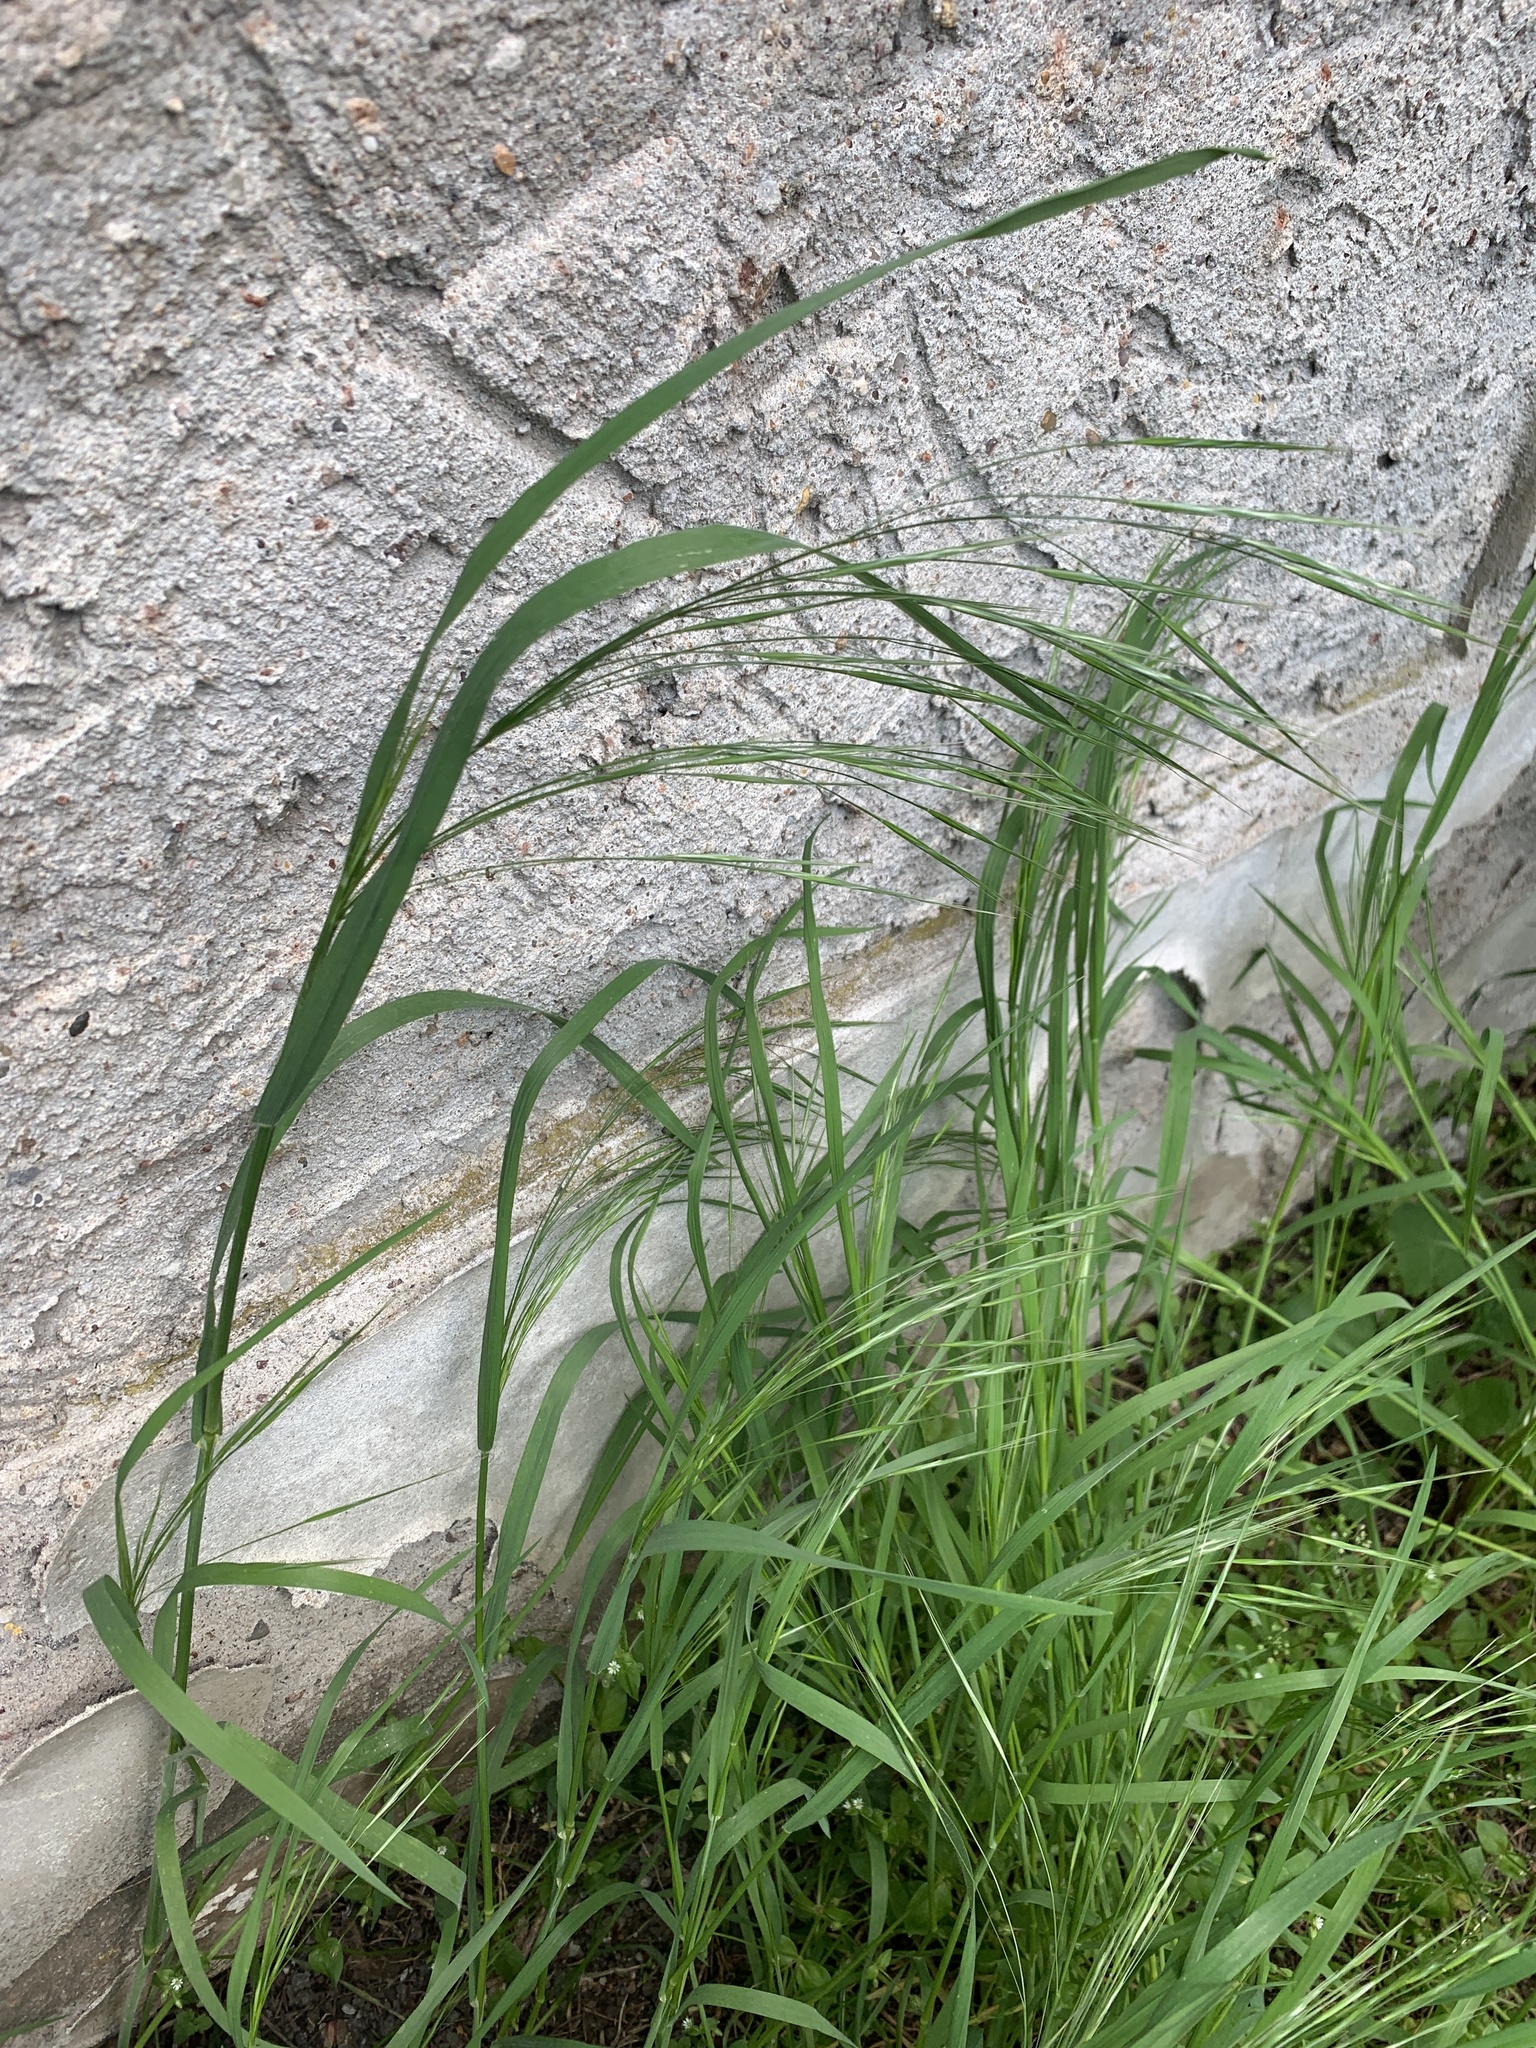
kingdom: Plantae
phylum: Tracheophyta
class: Liliopsida
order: Poales
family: Poaceae
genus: Bromus
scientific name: Bromus sterilis
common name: Poverty brome
